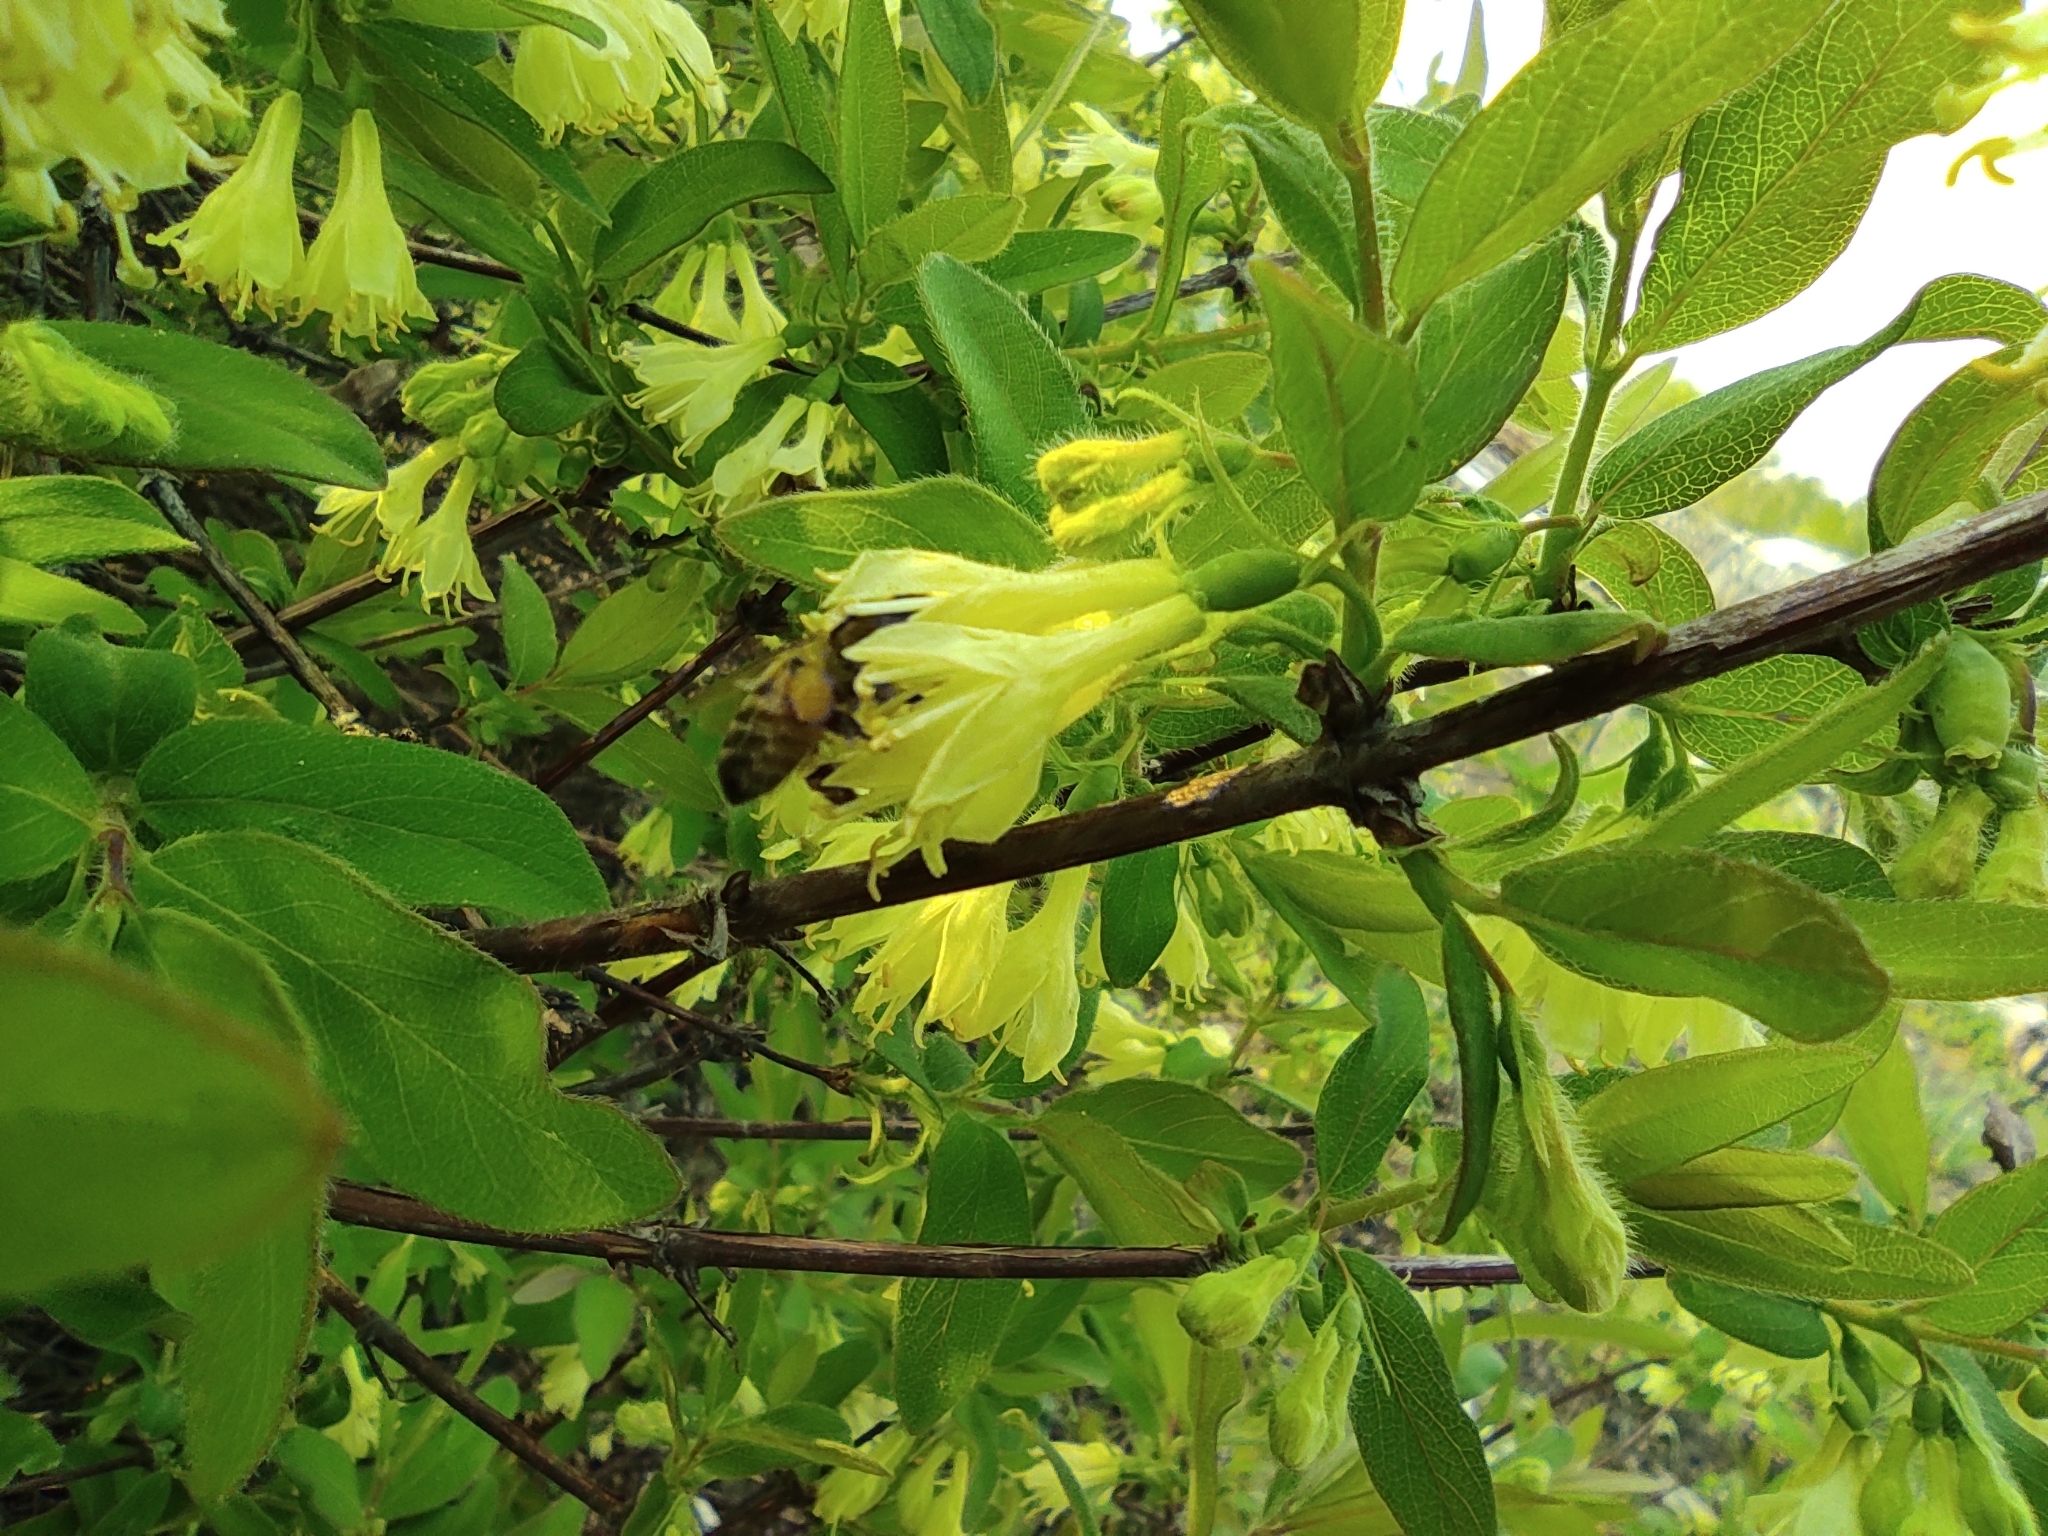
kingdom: Animalia
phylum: Arthropoda
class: Insecta
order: Hymenoptera
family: Apidae
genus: Apis
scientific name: Apis mellifera
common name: Honey bee
